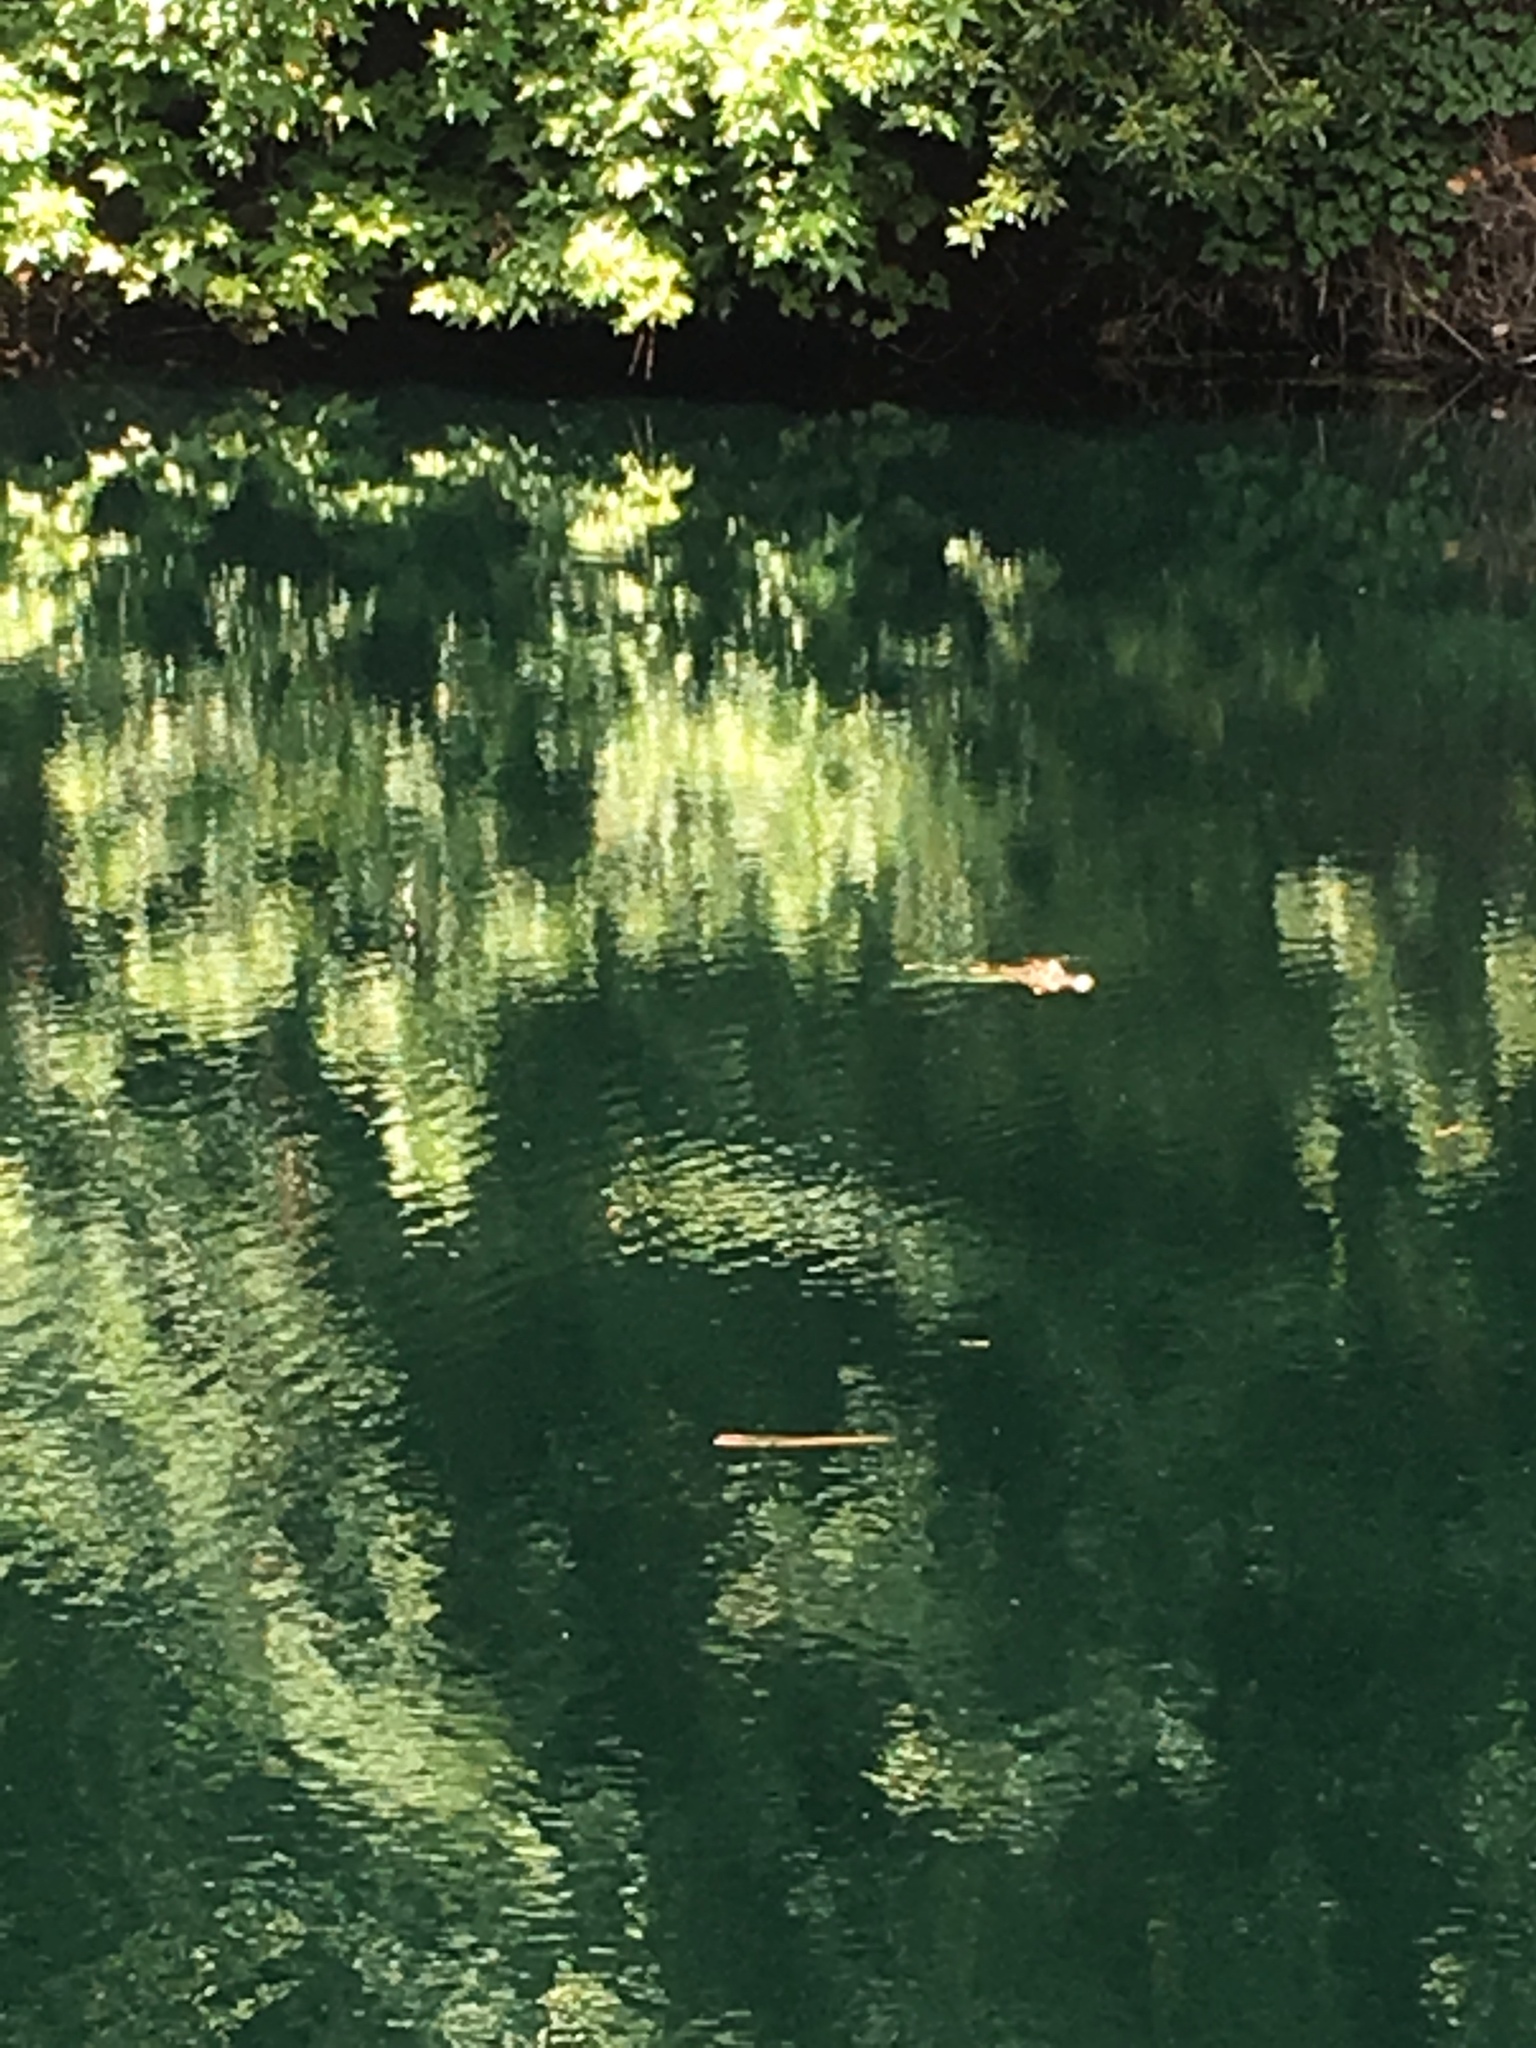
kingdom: Animalia
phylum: Chordata
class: Crocodylia
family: Alligatoridae
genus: Alligator
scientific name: Alligator mississippiensis
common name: American alligator
